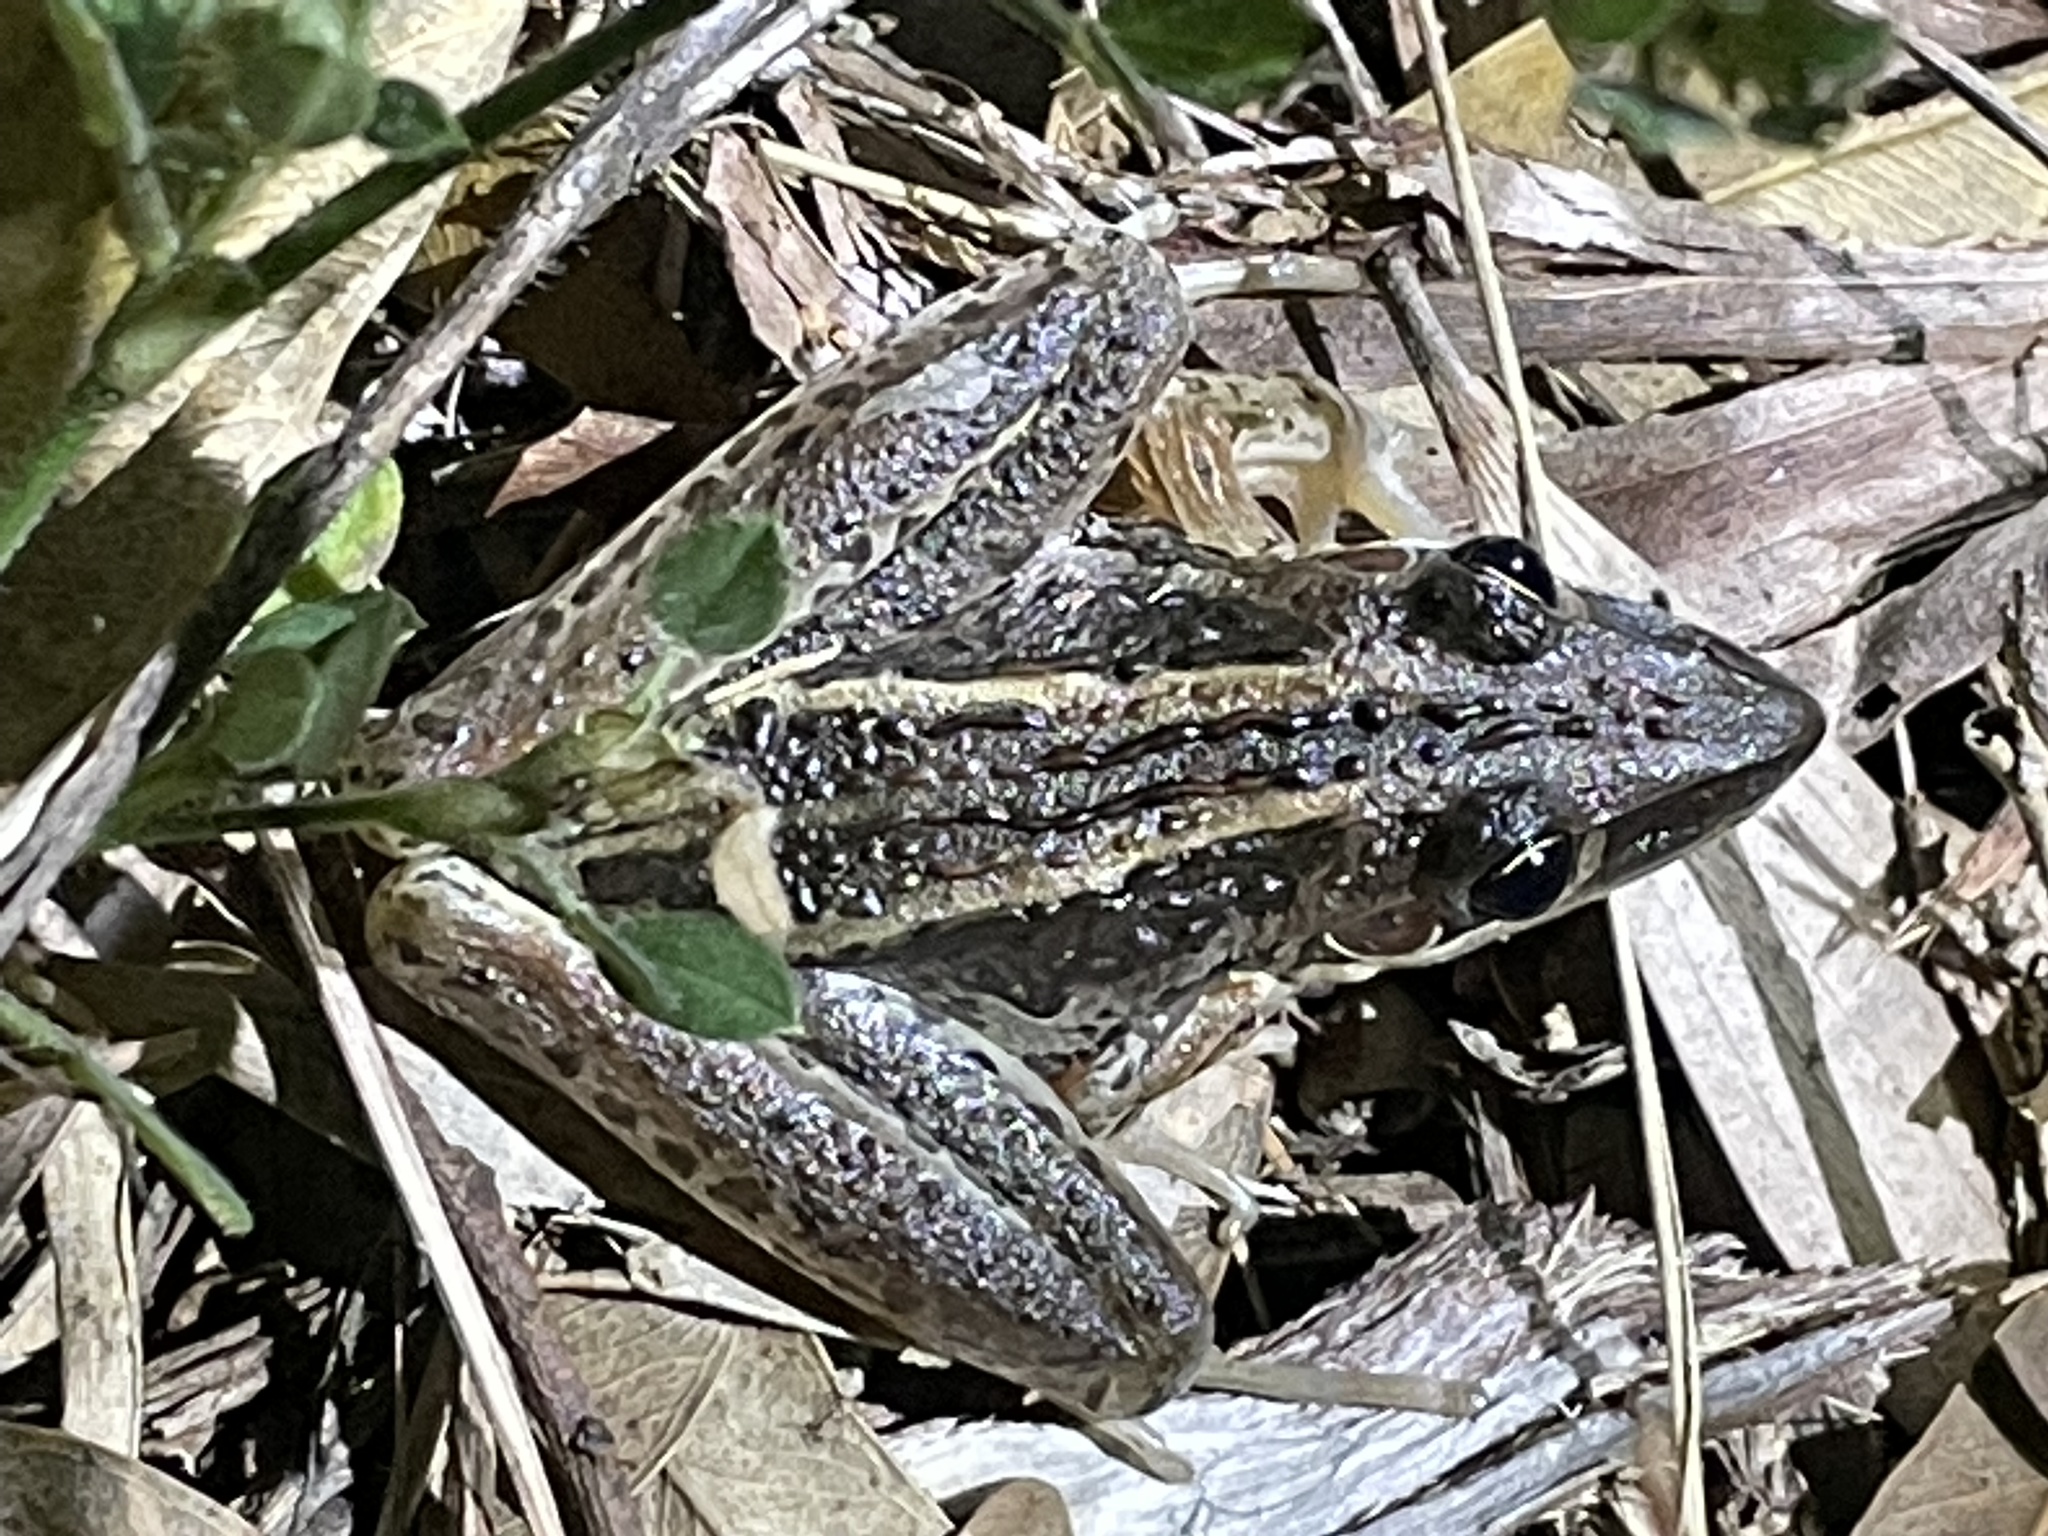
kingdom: Animalia
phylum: Chordata
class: Amphibia
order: Anura
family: Pelodryadidae
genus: Litoria
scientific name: Litoria nasuta
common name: Rocket frog
